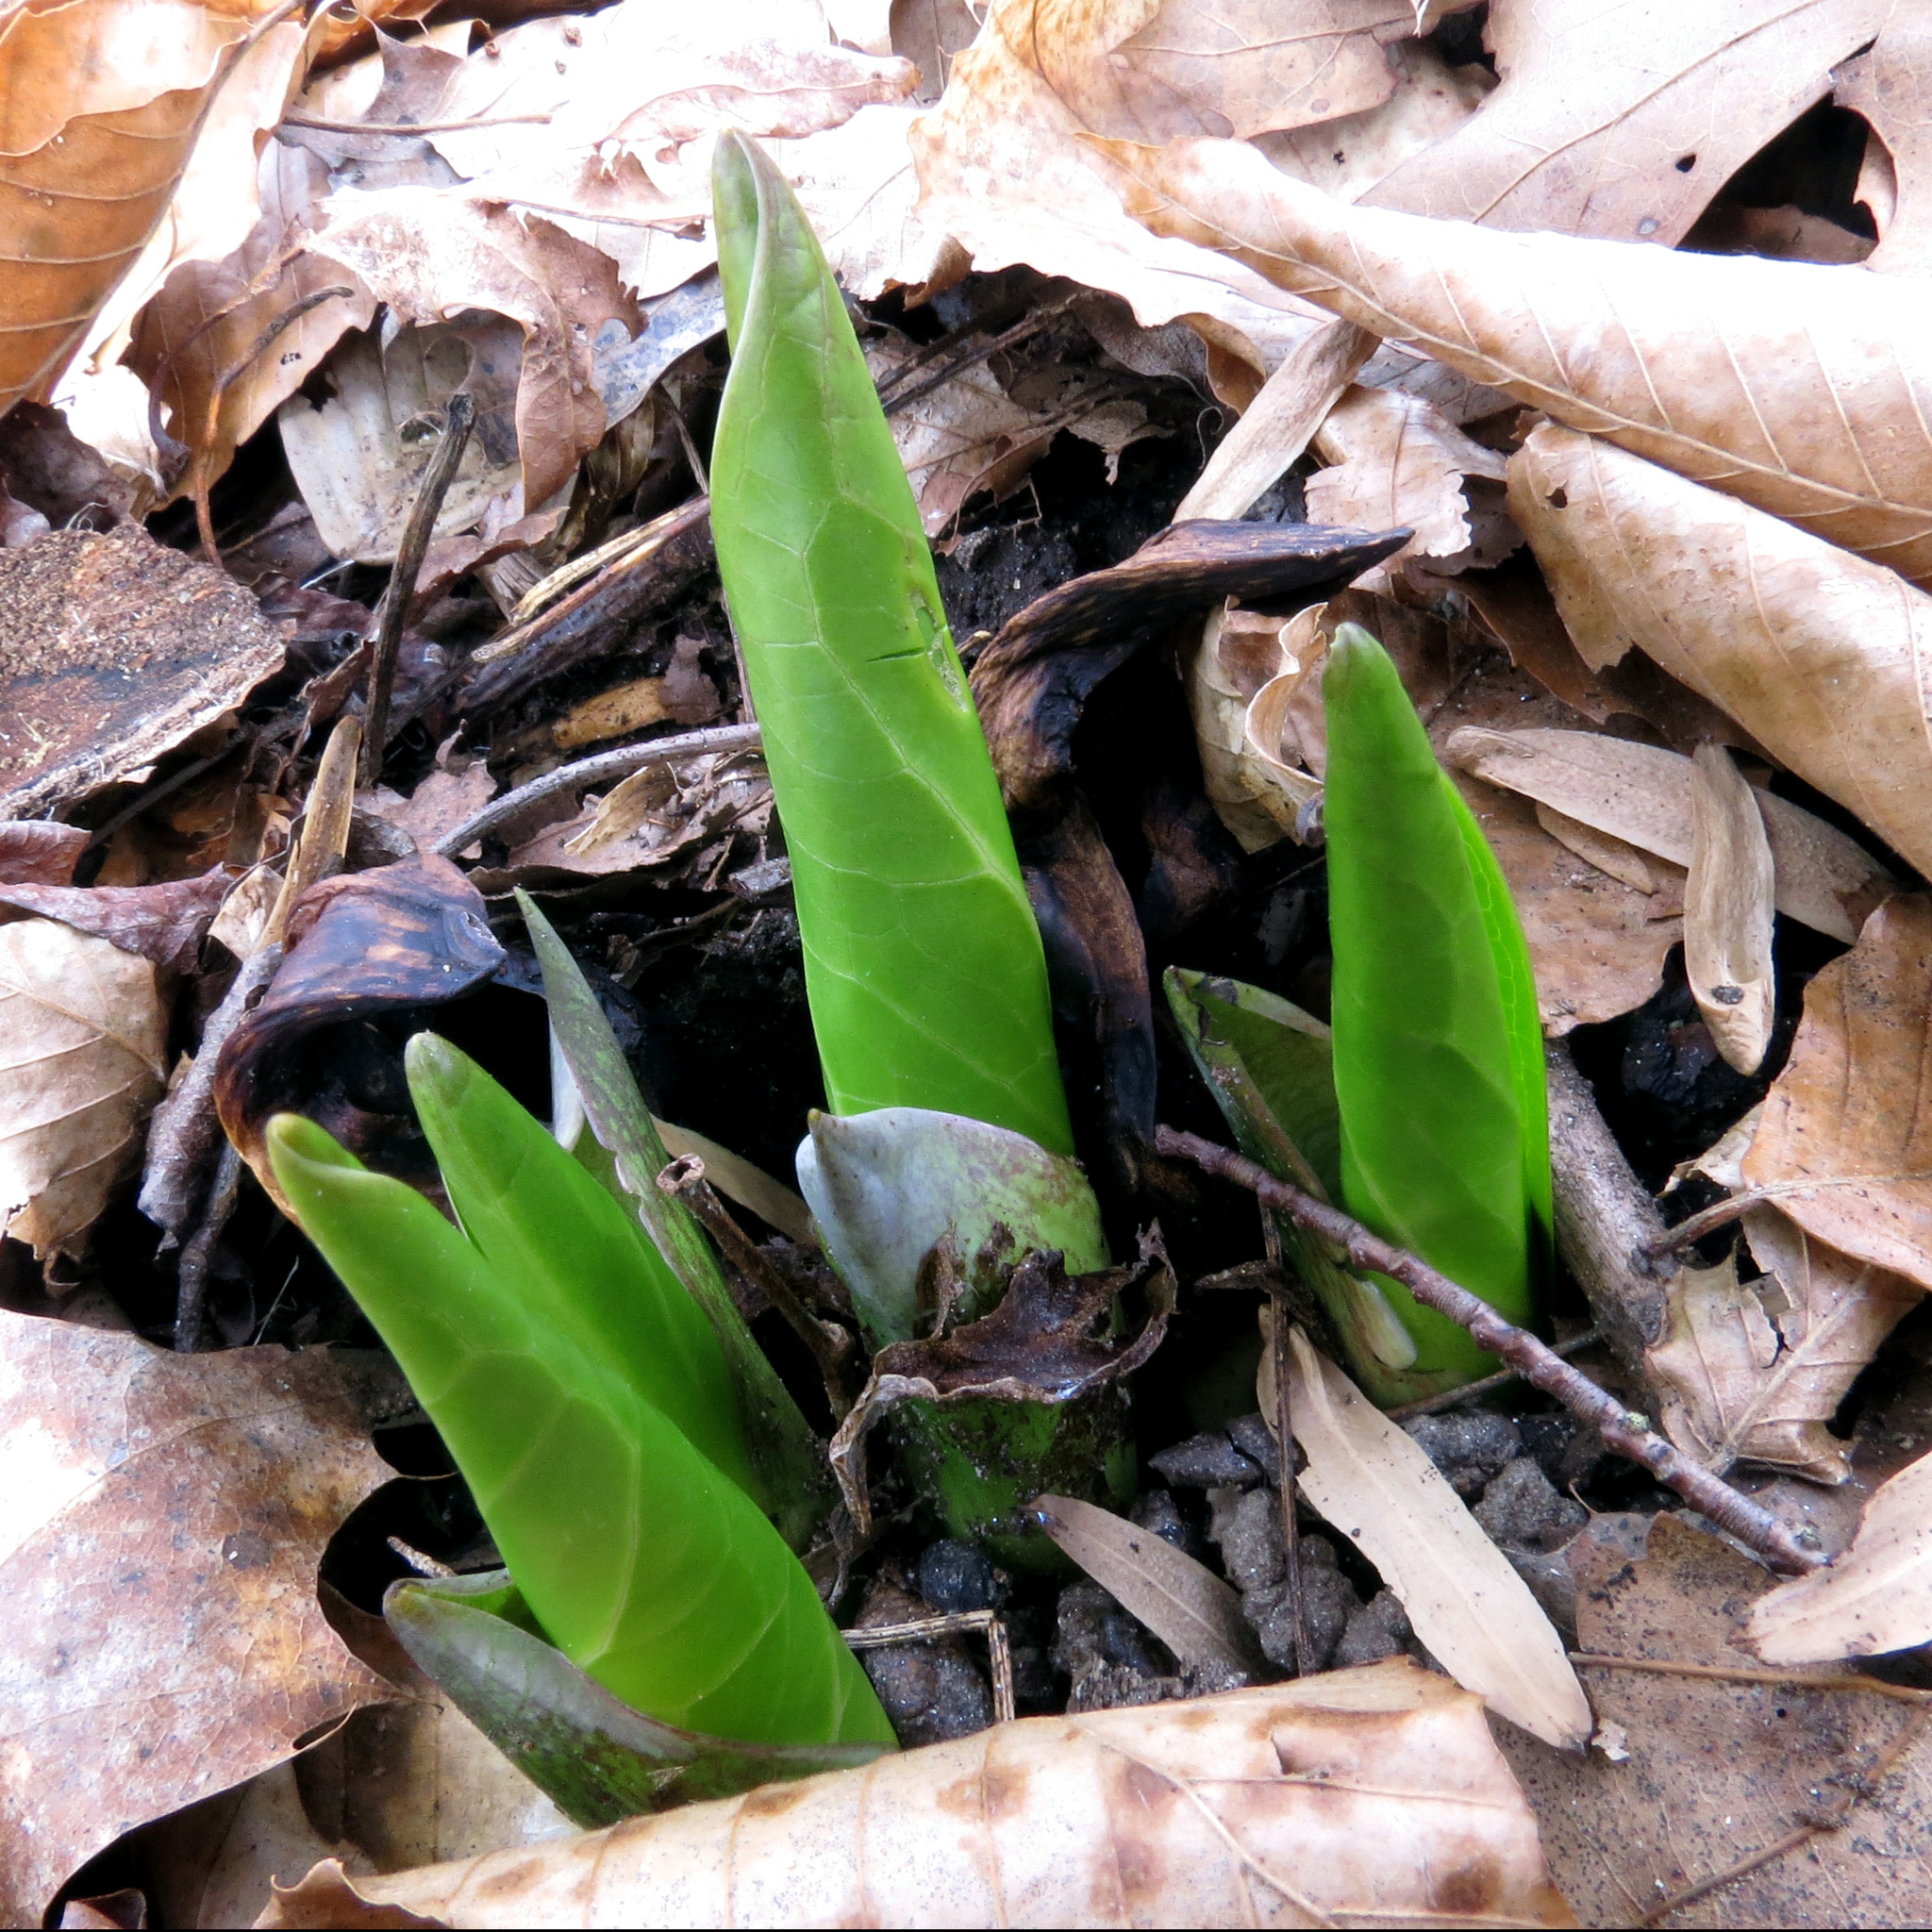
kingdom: Plantae
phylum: Tracheophyta
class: Liliopsida
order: Alismatales
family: Araceae
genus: Symplocarpus
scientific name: Symplocarpus foetidus
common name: Eastern skunk cabbage
